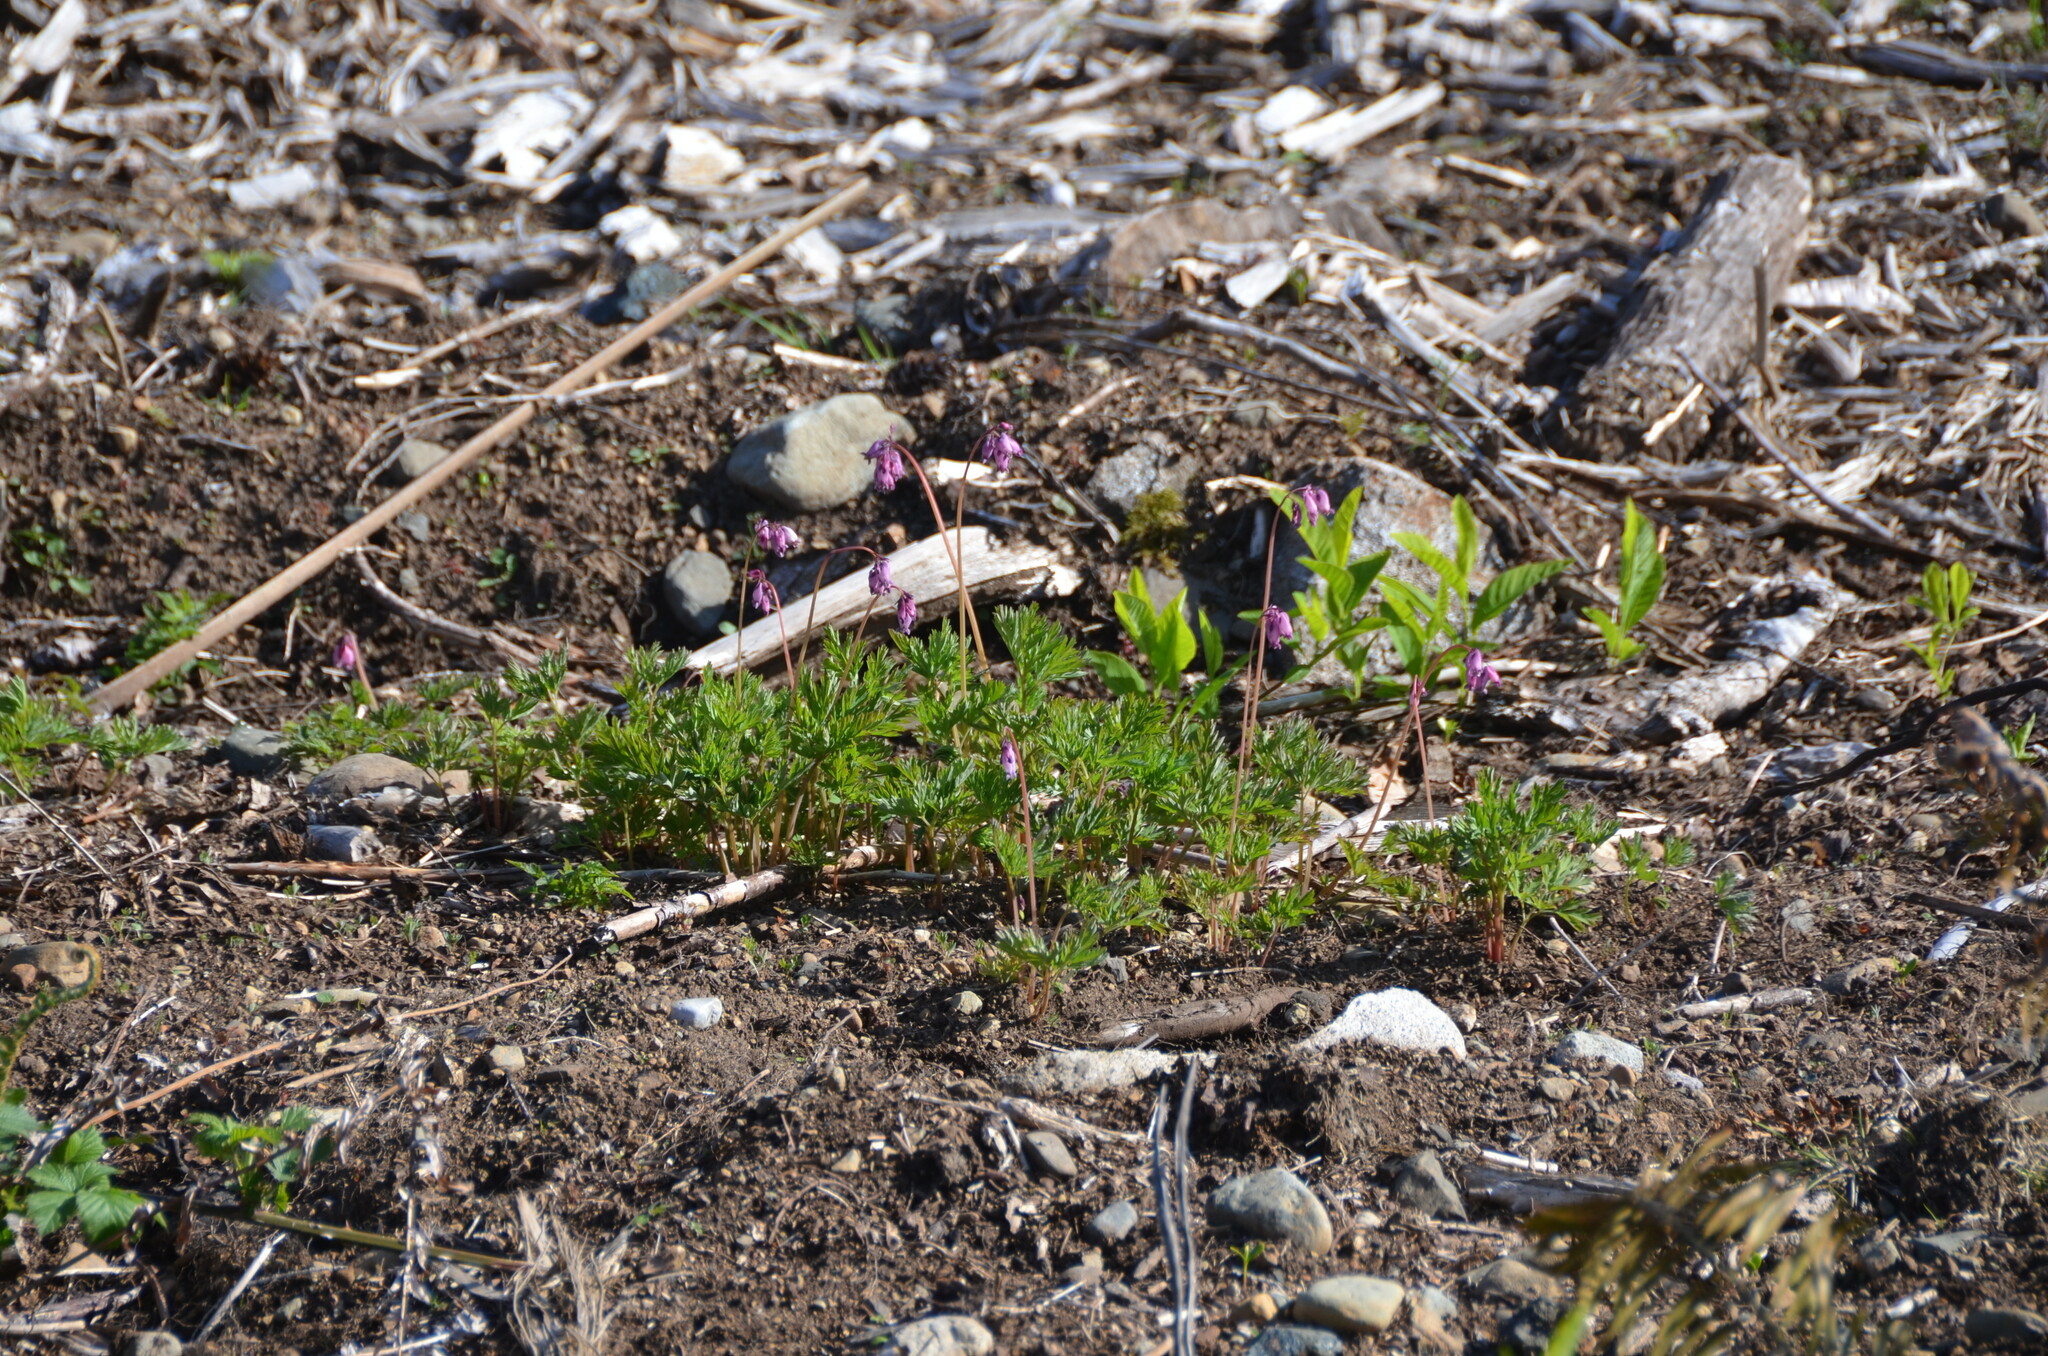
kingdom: Plantae
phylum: Tracheophyta
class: Magnoliopsida
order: Ranunculales
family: Papaveraceae
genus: Dicentra
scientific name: Dicentra formosa
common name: Bleeding-heart
